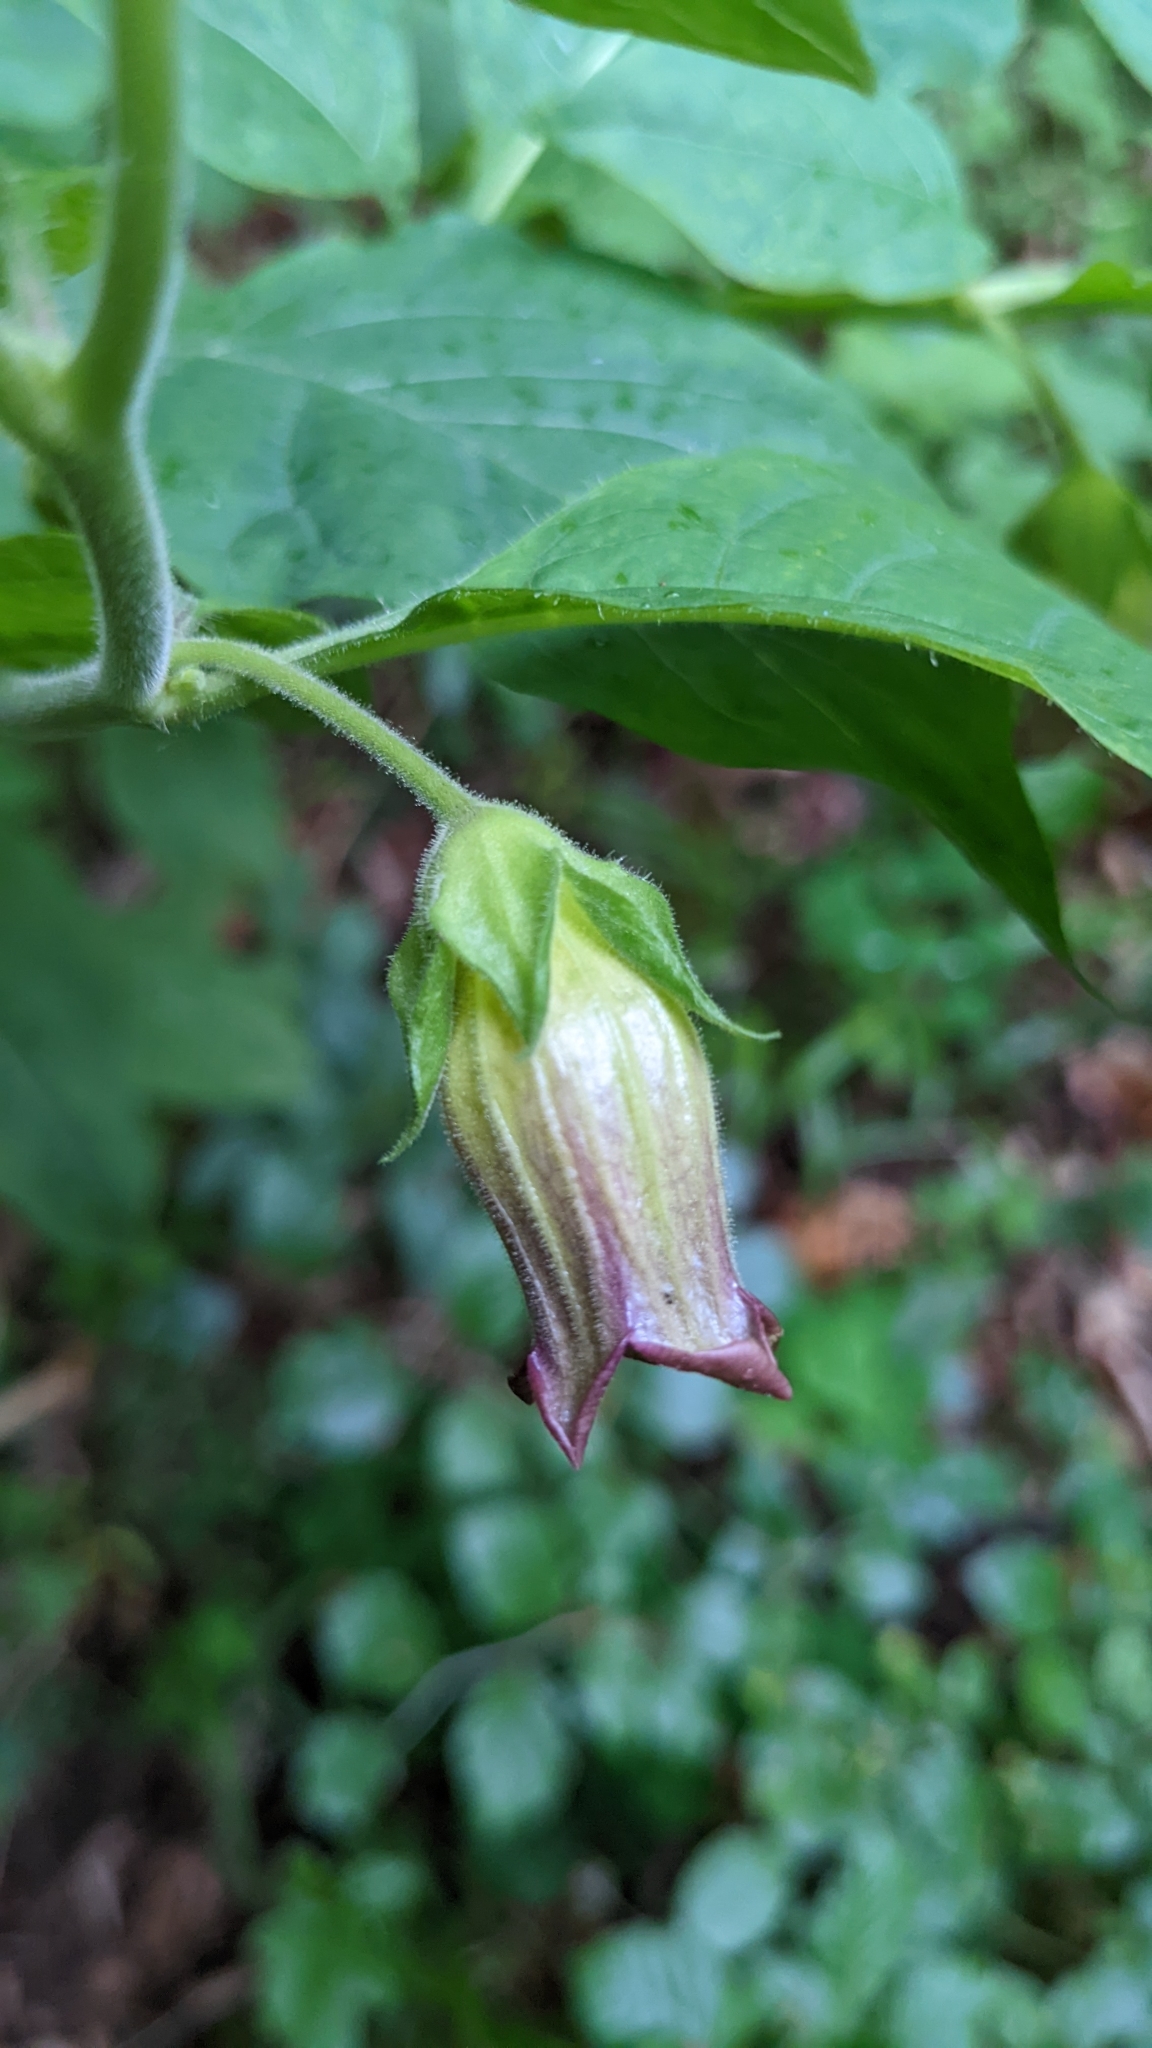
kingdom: Plantae
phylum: Tracheophyta
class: Magnoliopsida
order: Solanales
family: Solanaceae
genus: Atropa
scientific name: Atropa belladonna
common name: Deadly nightshade
